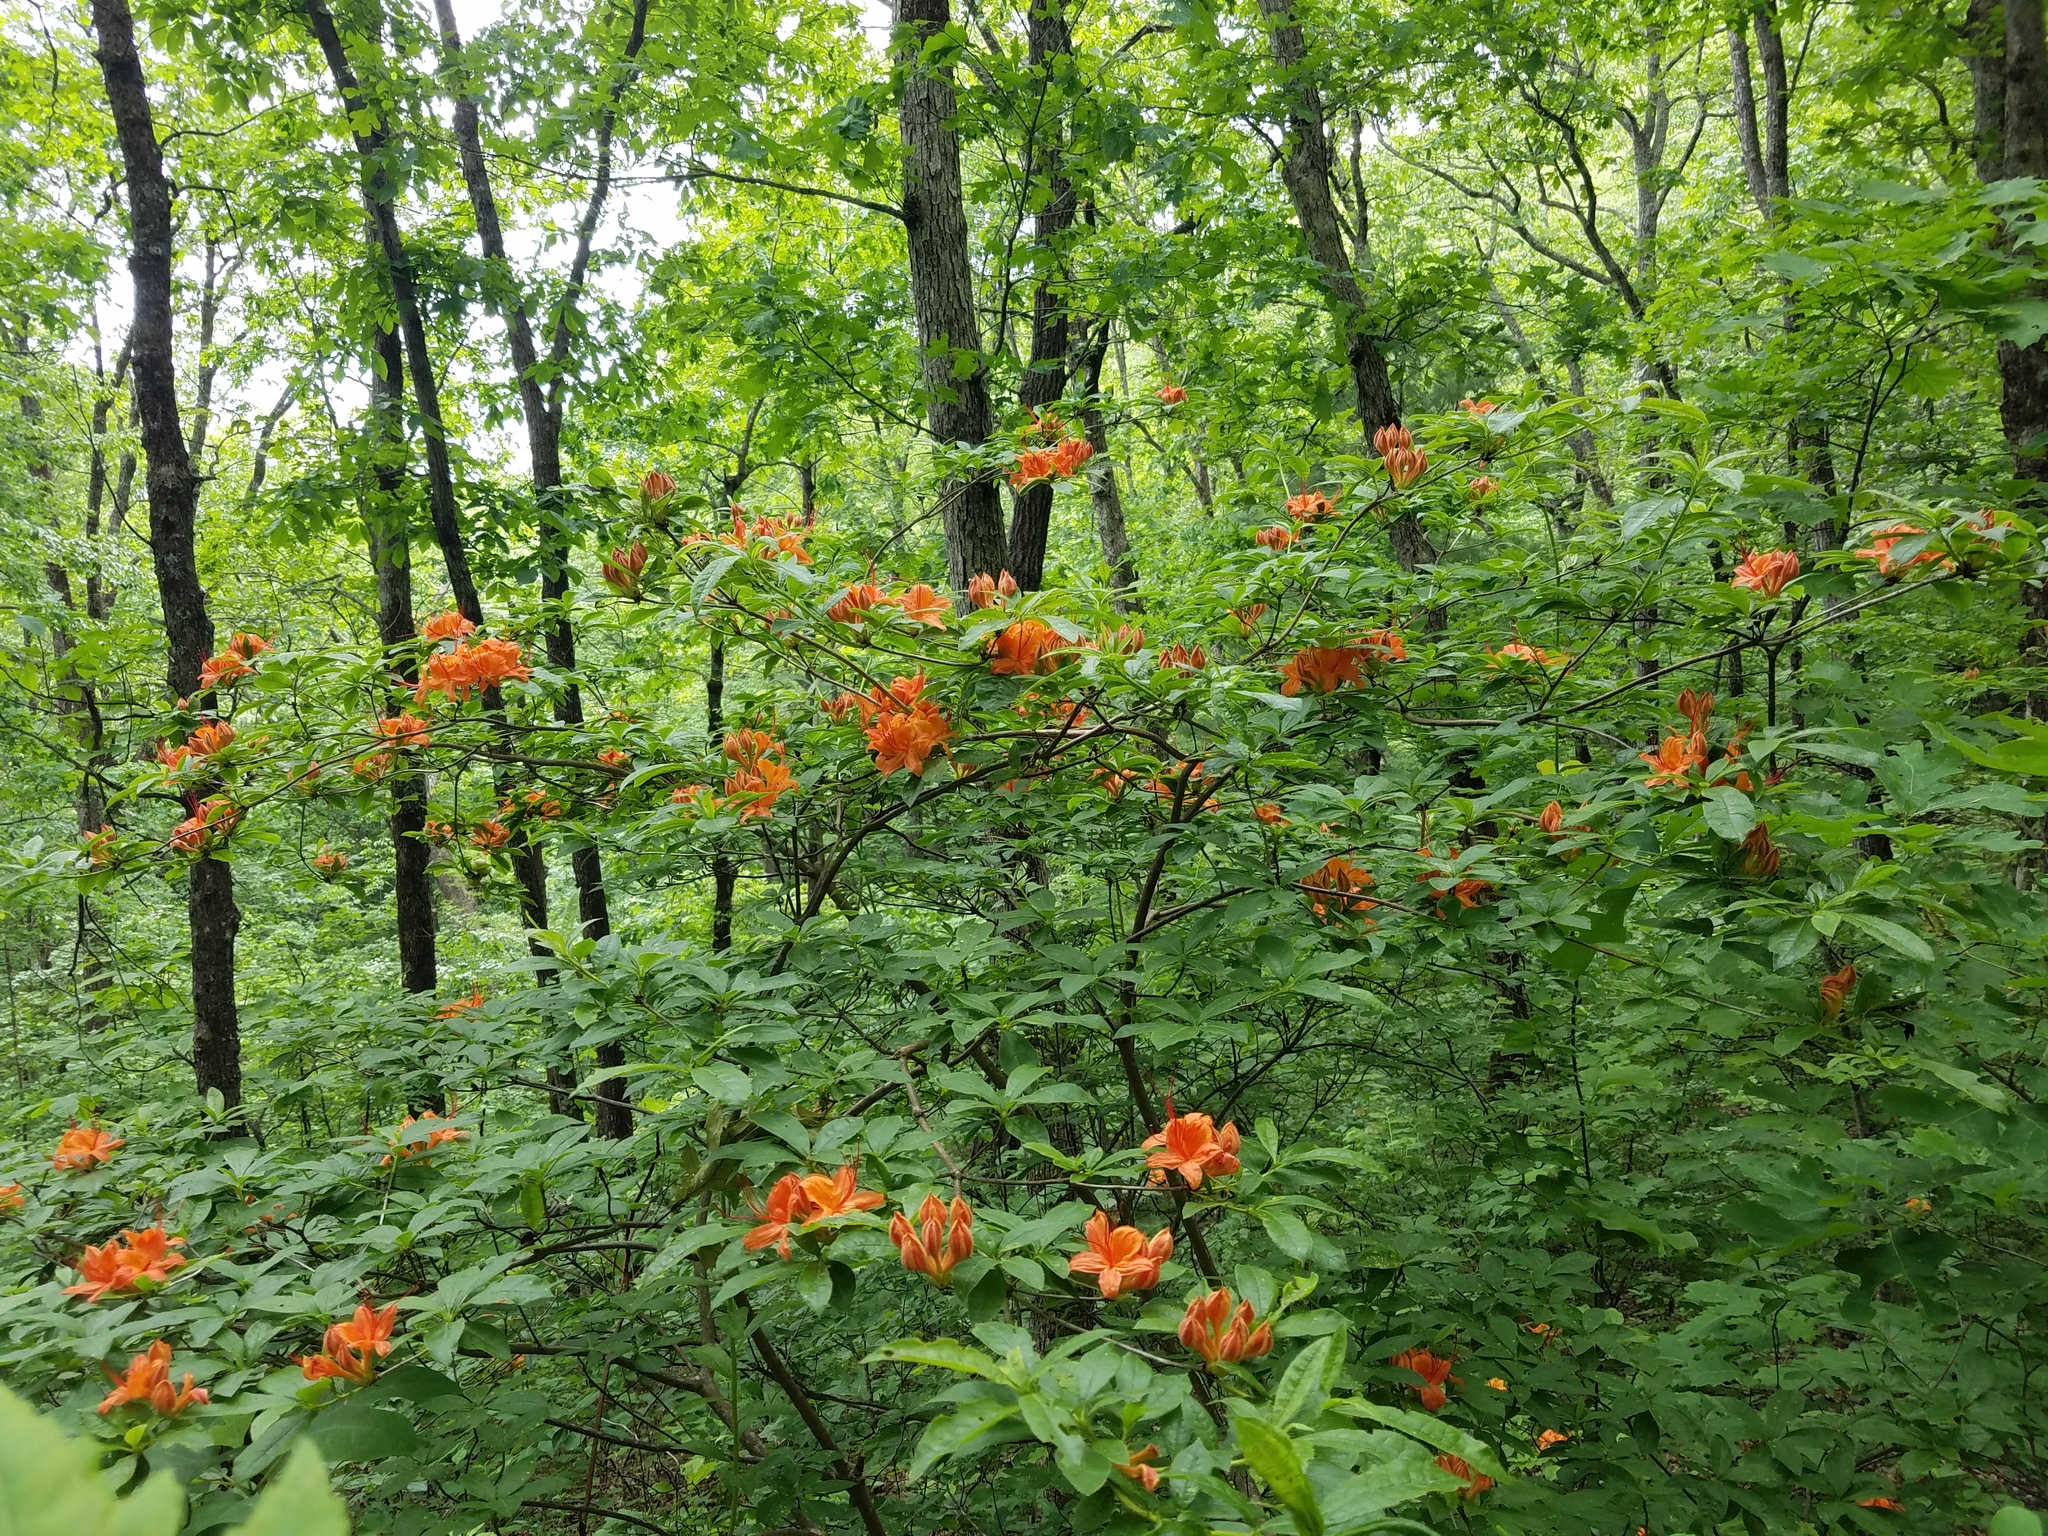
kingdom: Plantae
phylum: Tracheophyta
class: Magnoliopsida
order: Ericales
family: Ericaceae
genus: Rhododendron
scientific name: Rhododendron calendulaceum
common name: Flame azalea
